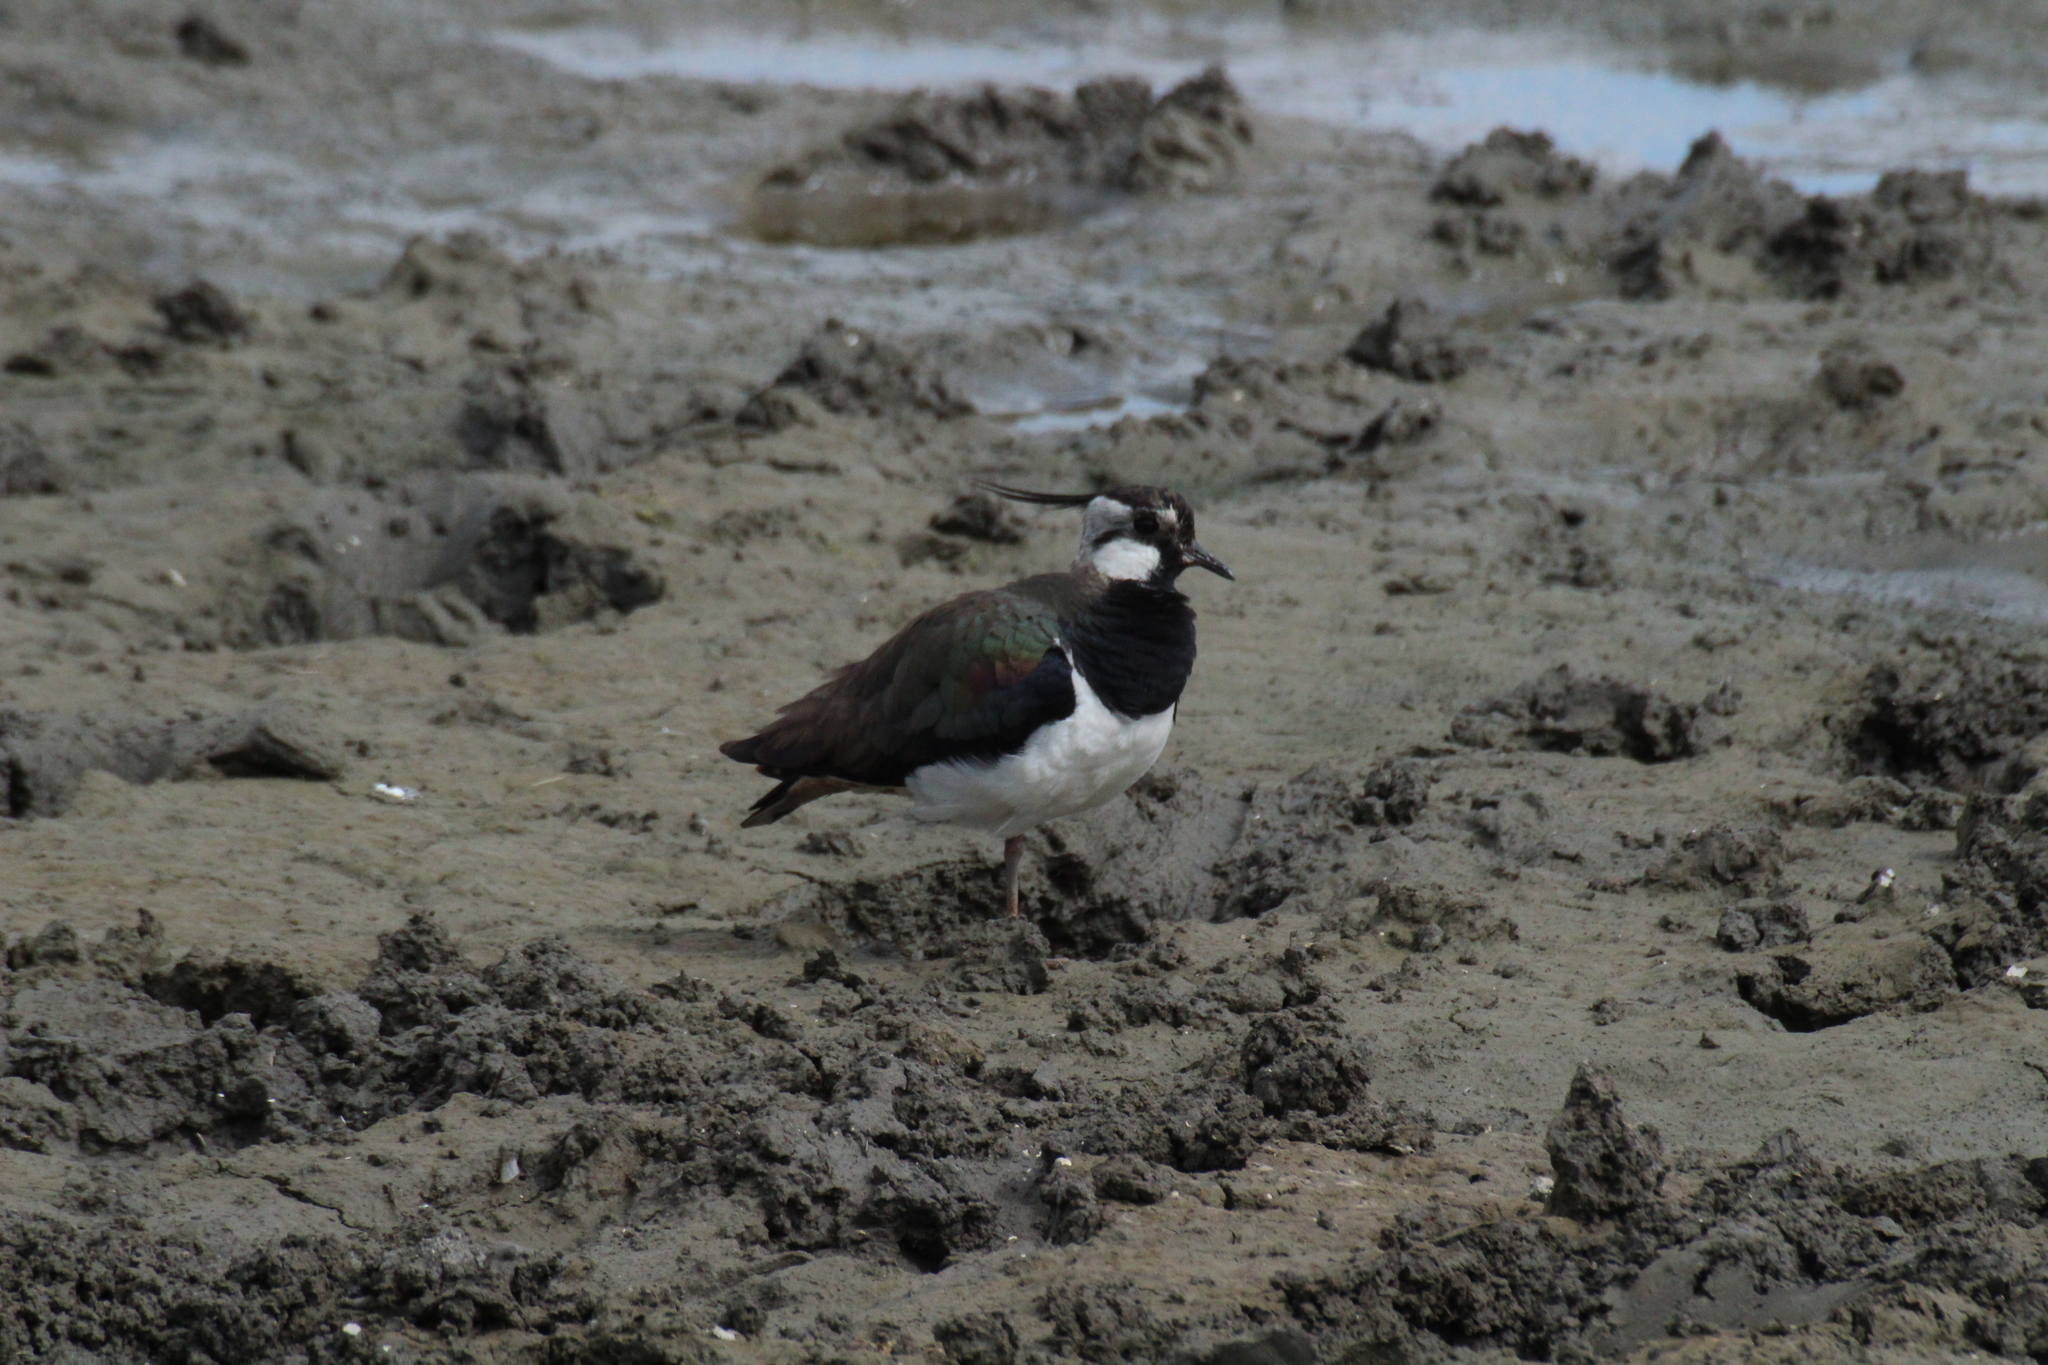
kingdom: Animalia
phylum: Chordata
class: Aves
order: Charadriiformes
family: Charadriidae
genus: Vanellus
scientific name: Vanellus vanellus
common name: Northern lapwing
